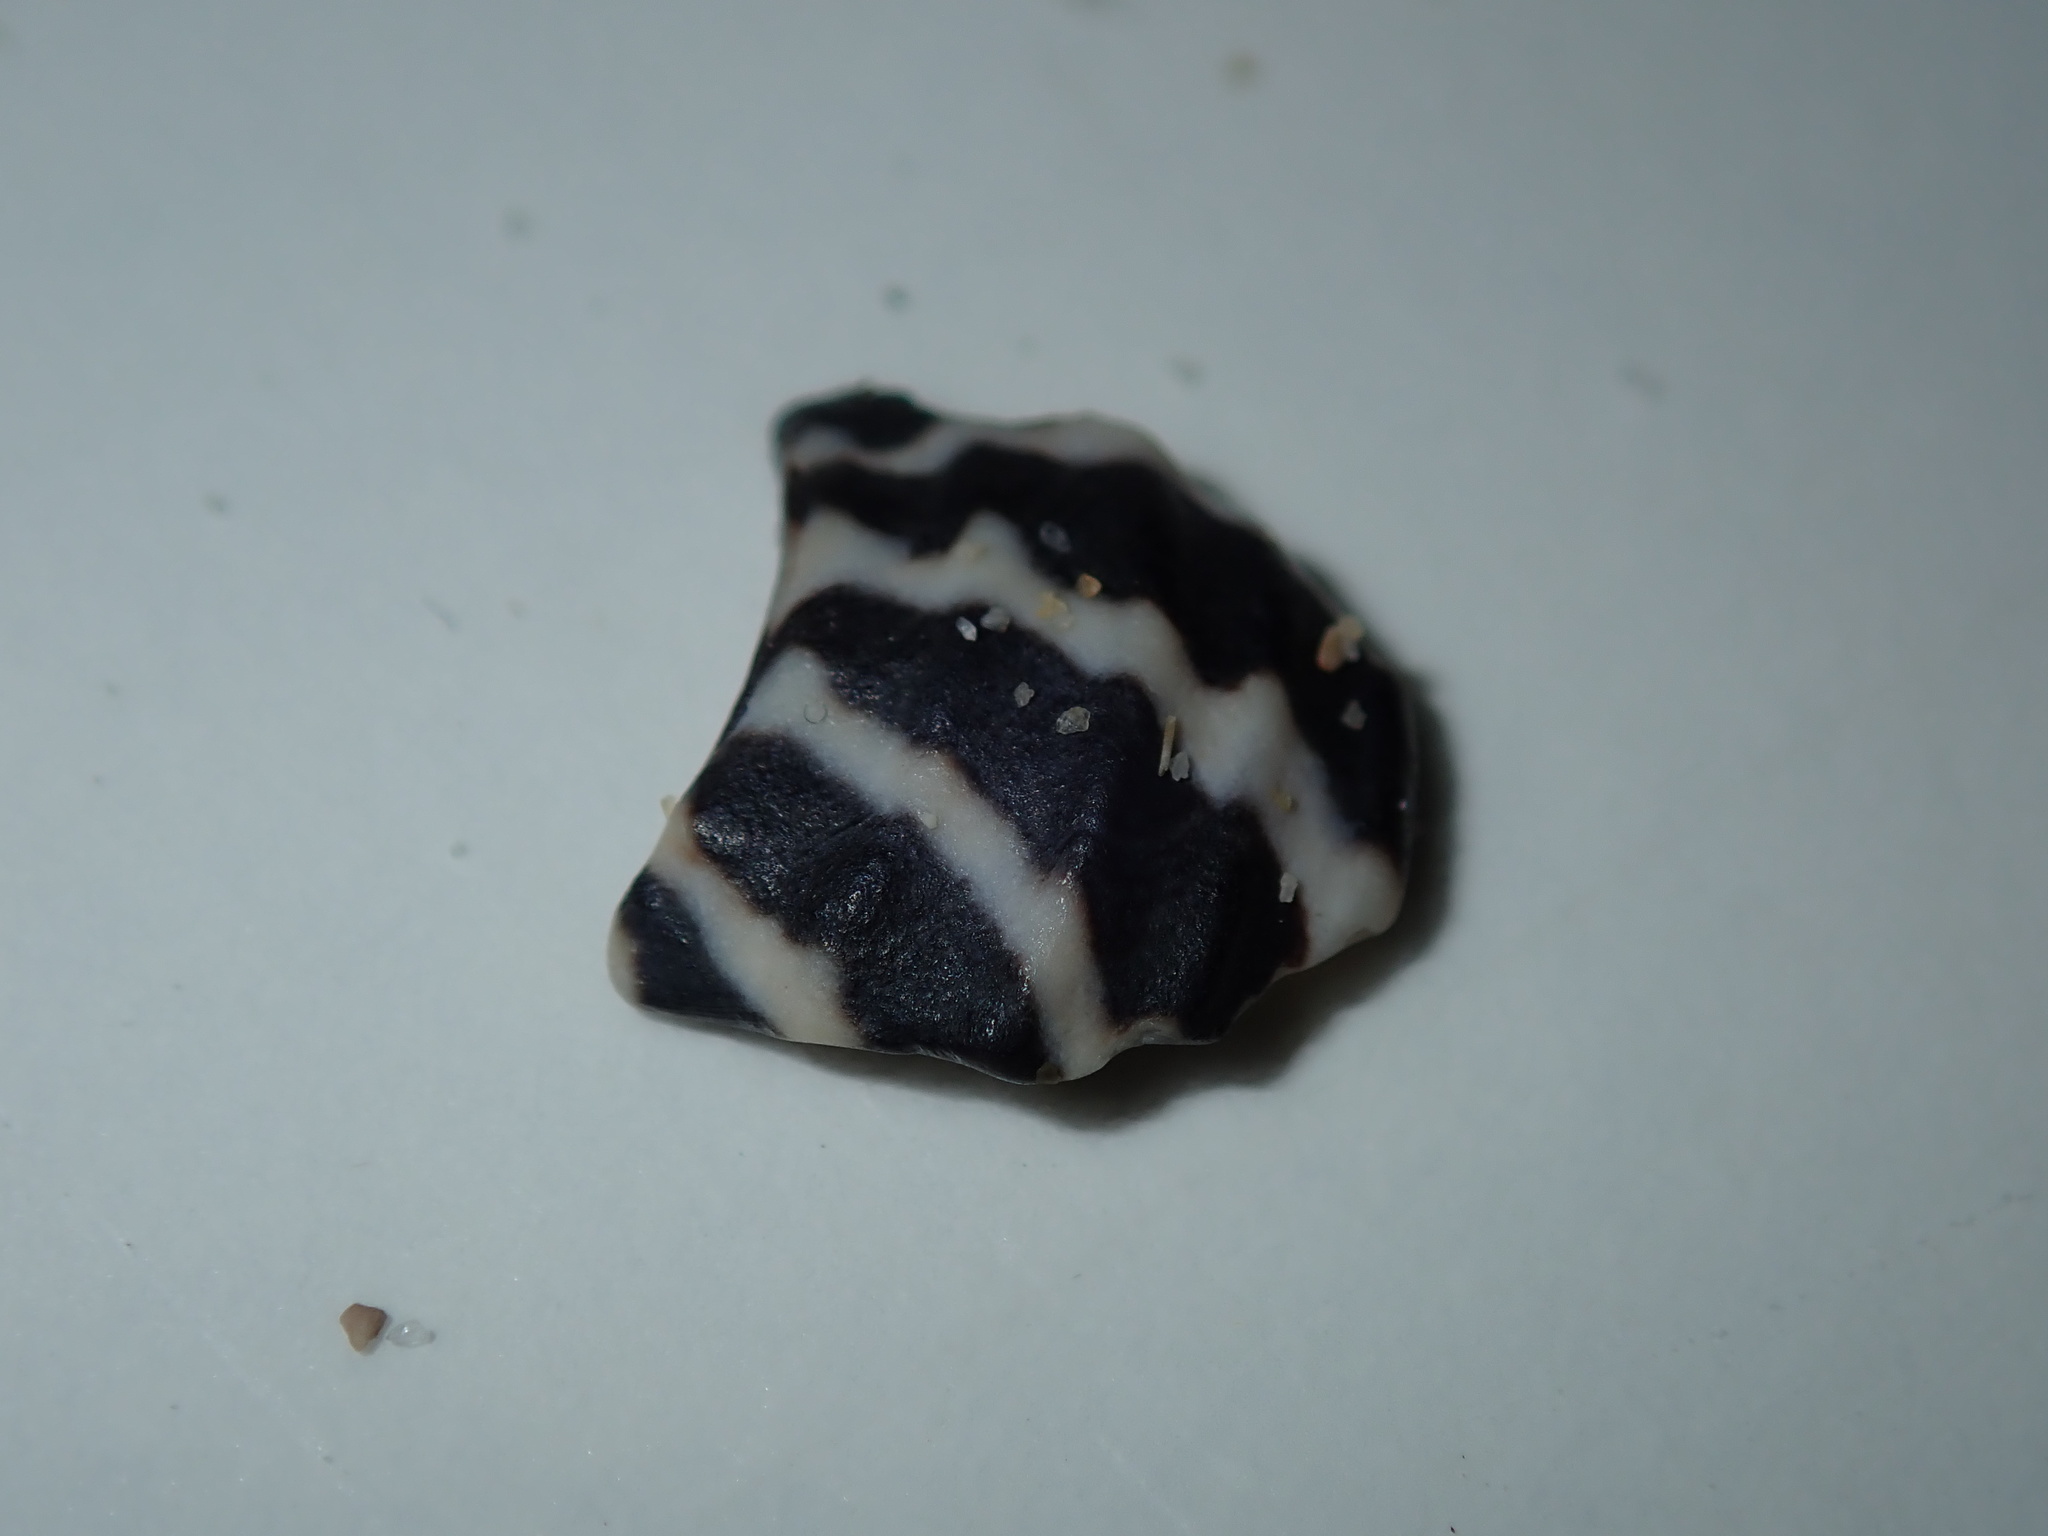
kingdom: Animalia
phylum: Mollusca
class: Gastropoda
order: Trochida
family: Trochidae
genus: Austrocochlea
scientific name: Austrocochlea porcata
